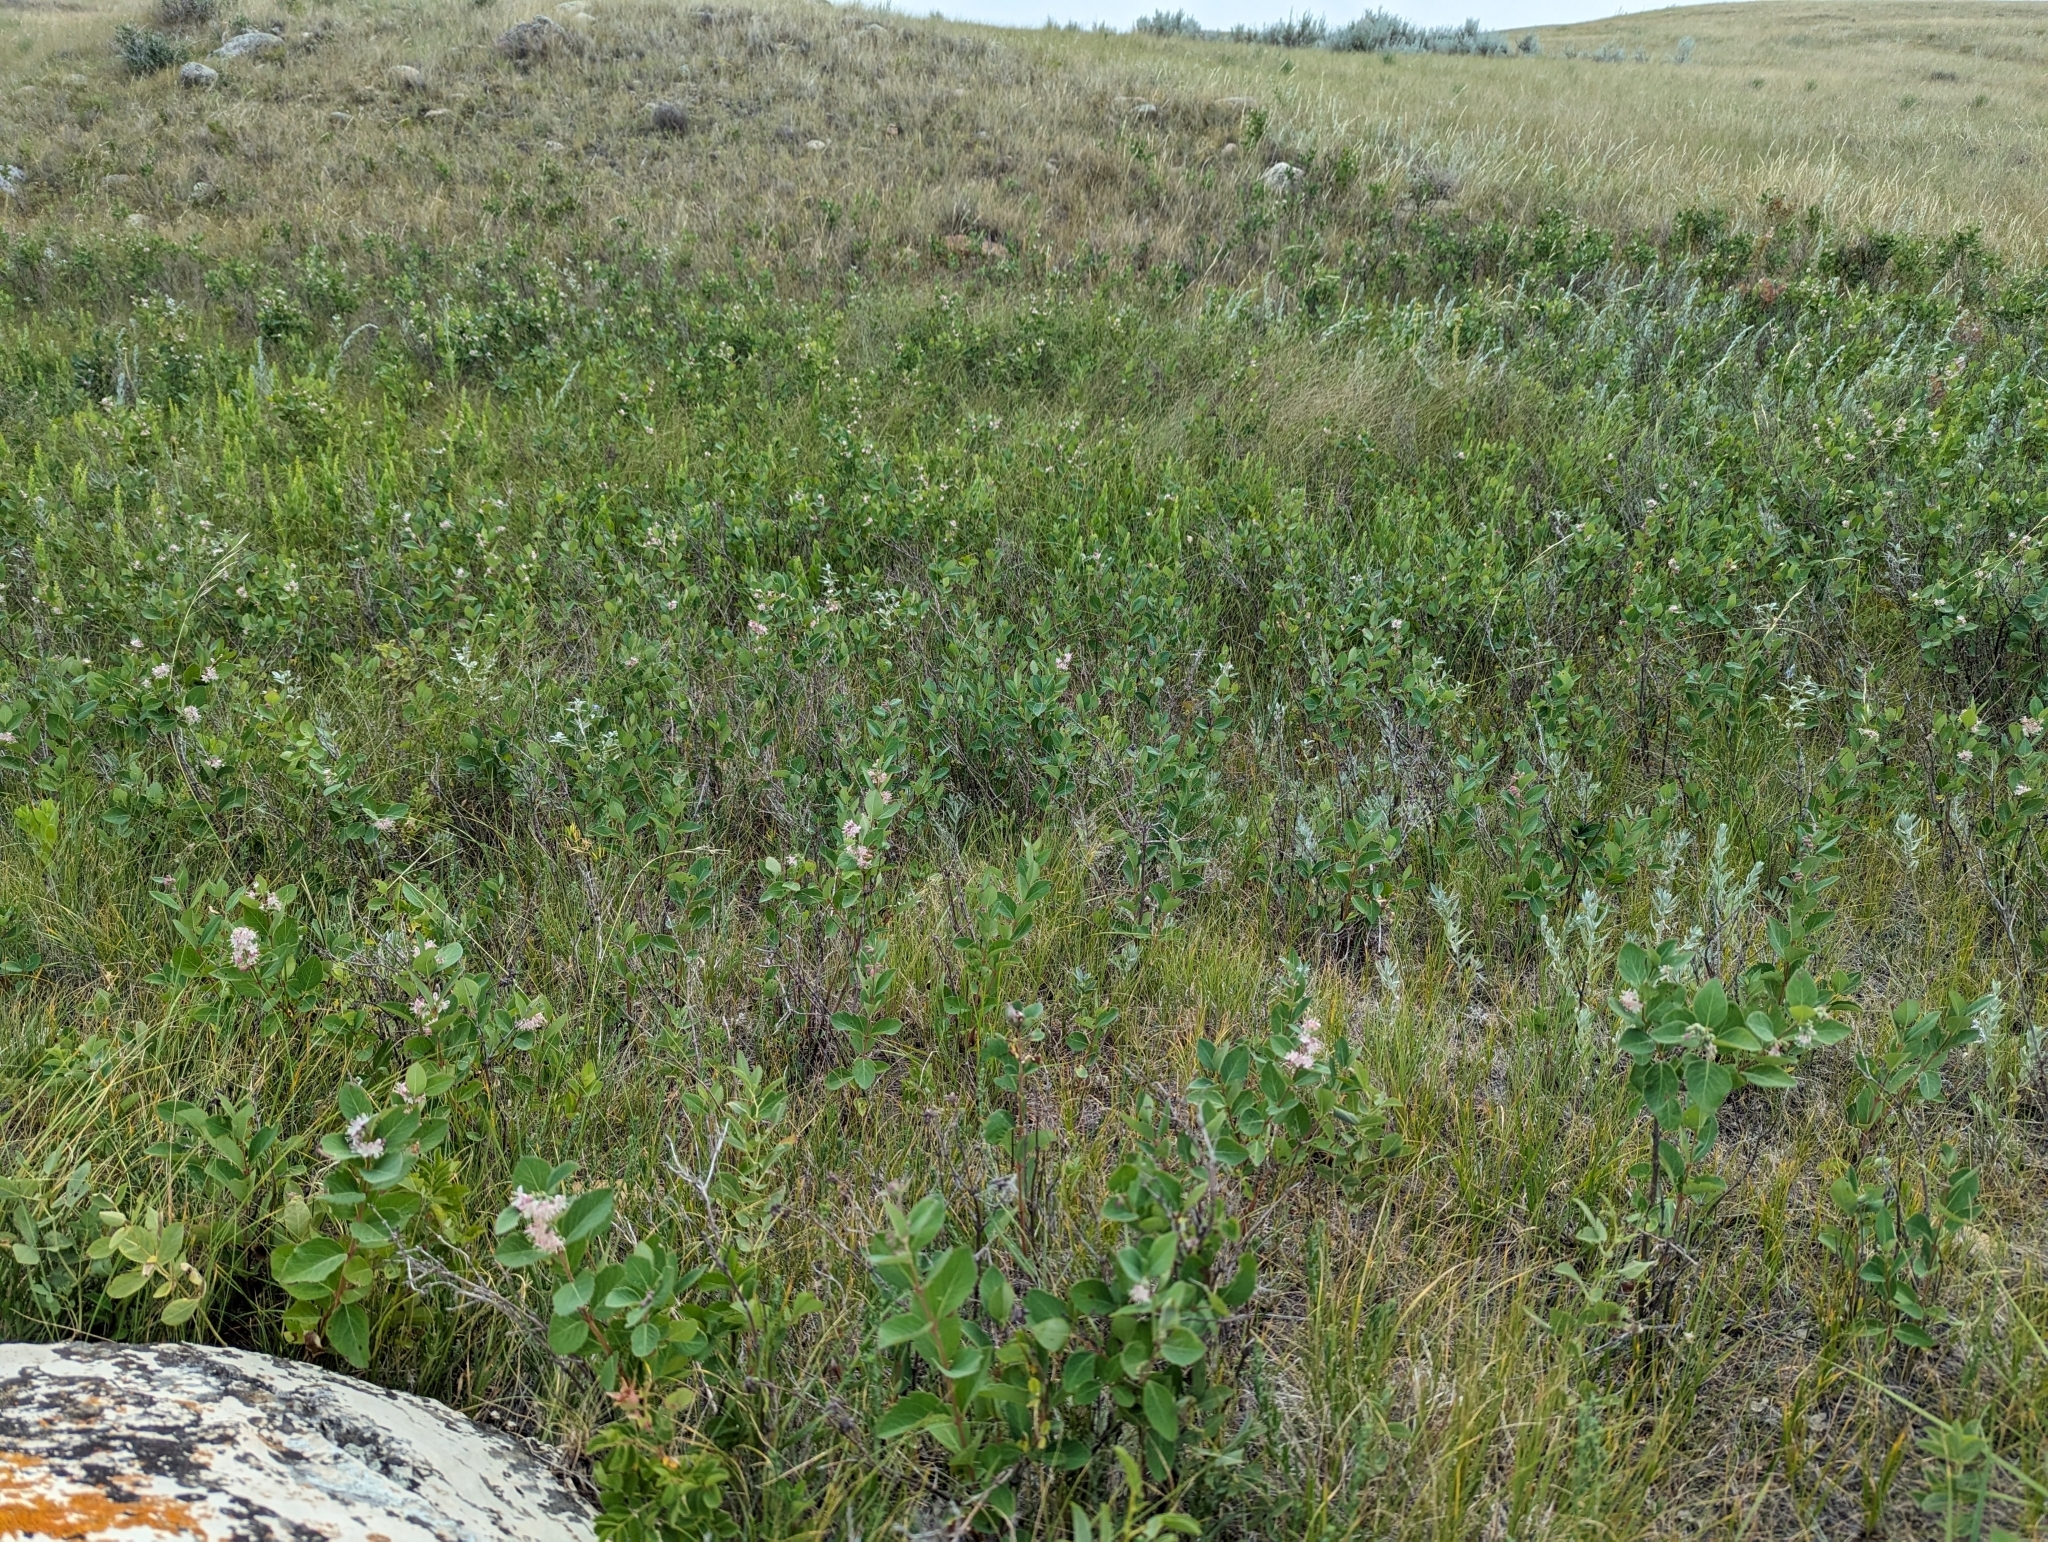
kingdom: Plantae
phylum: Tracheophyta
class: Magnoliopsida
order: Dipsacales
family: Caprifoliaceae
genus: Symphoricarpos
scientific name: Symphoricarpos occidentalis
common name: Wolfberry
